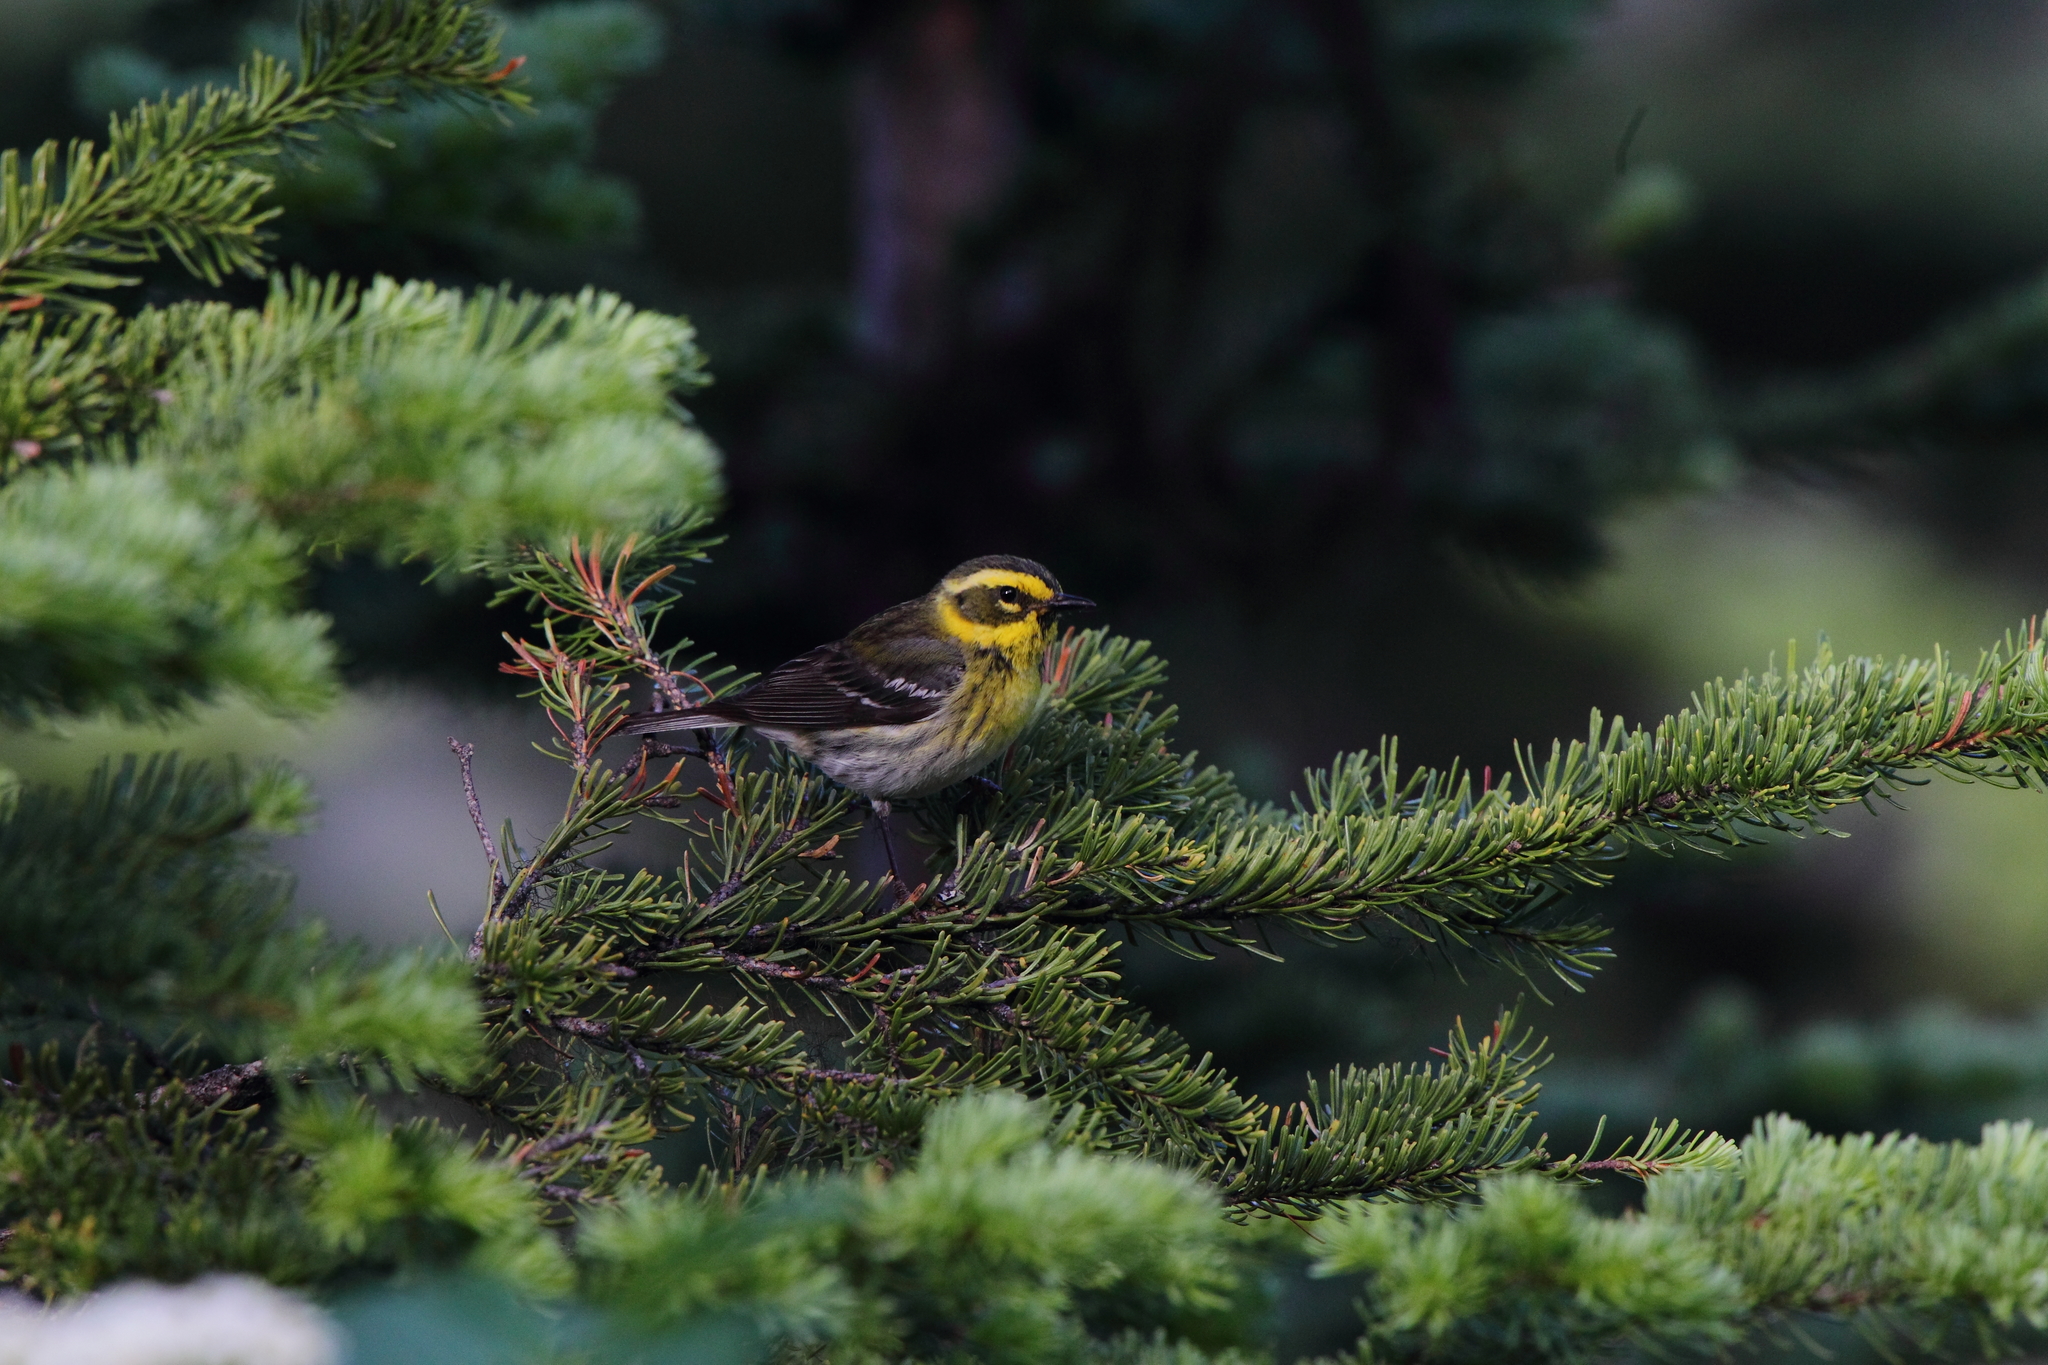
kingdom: Animalia
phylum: Chordata
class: Aves
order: Passeriformes
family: Parulidae
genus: Setophaga
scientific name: Setophaga townsendi
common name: Townsend's warbler
